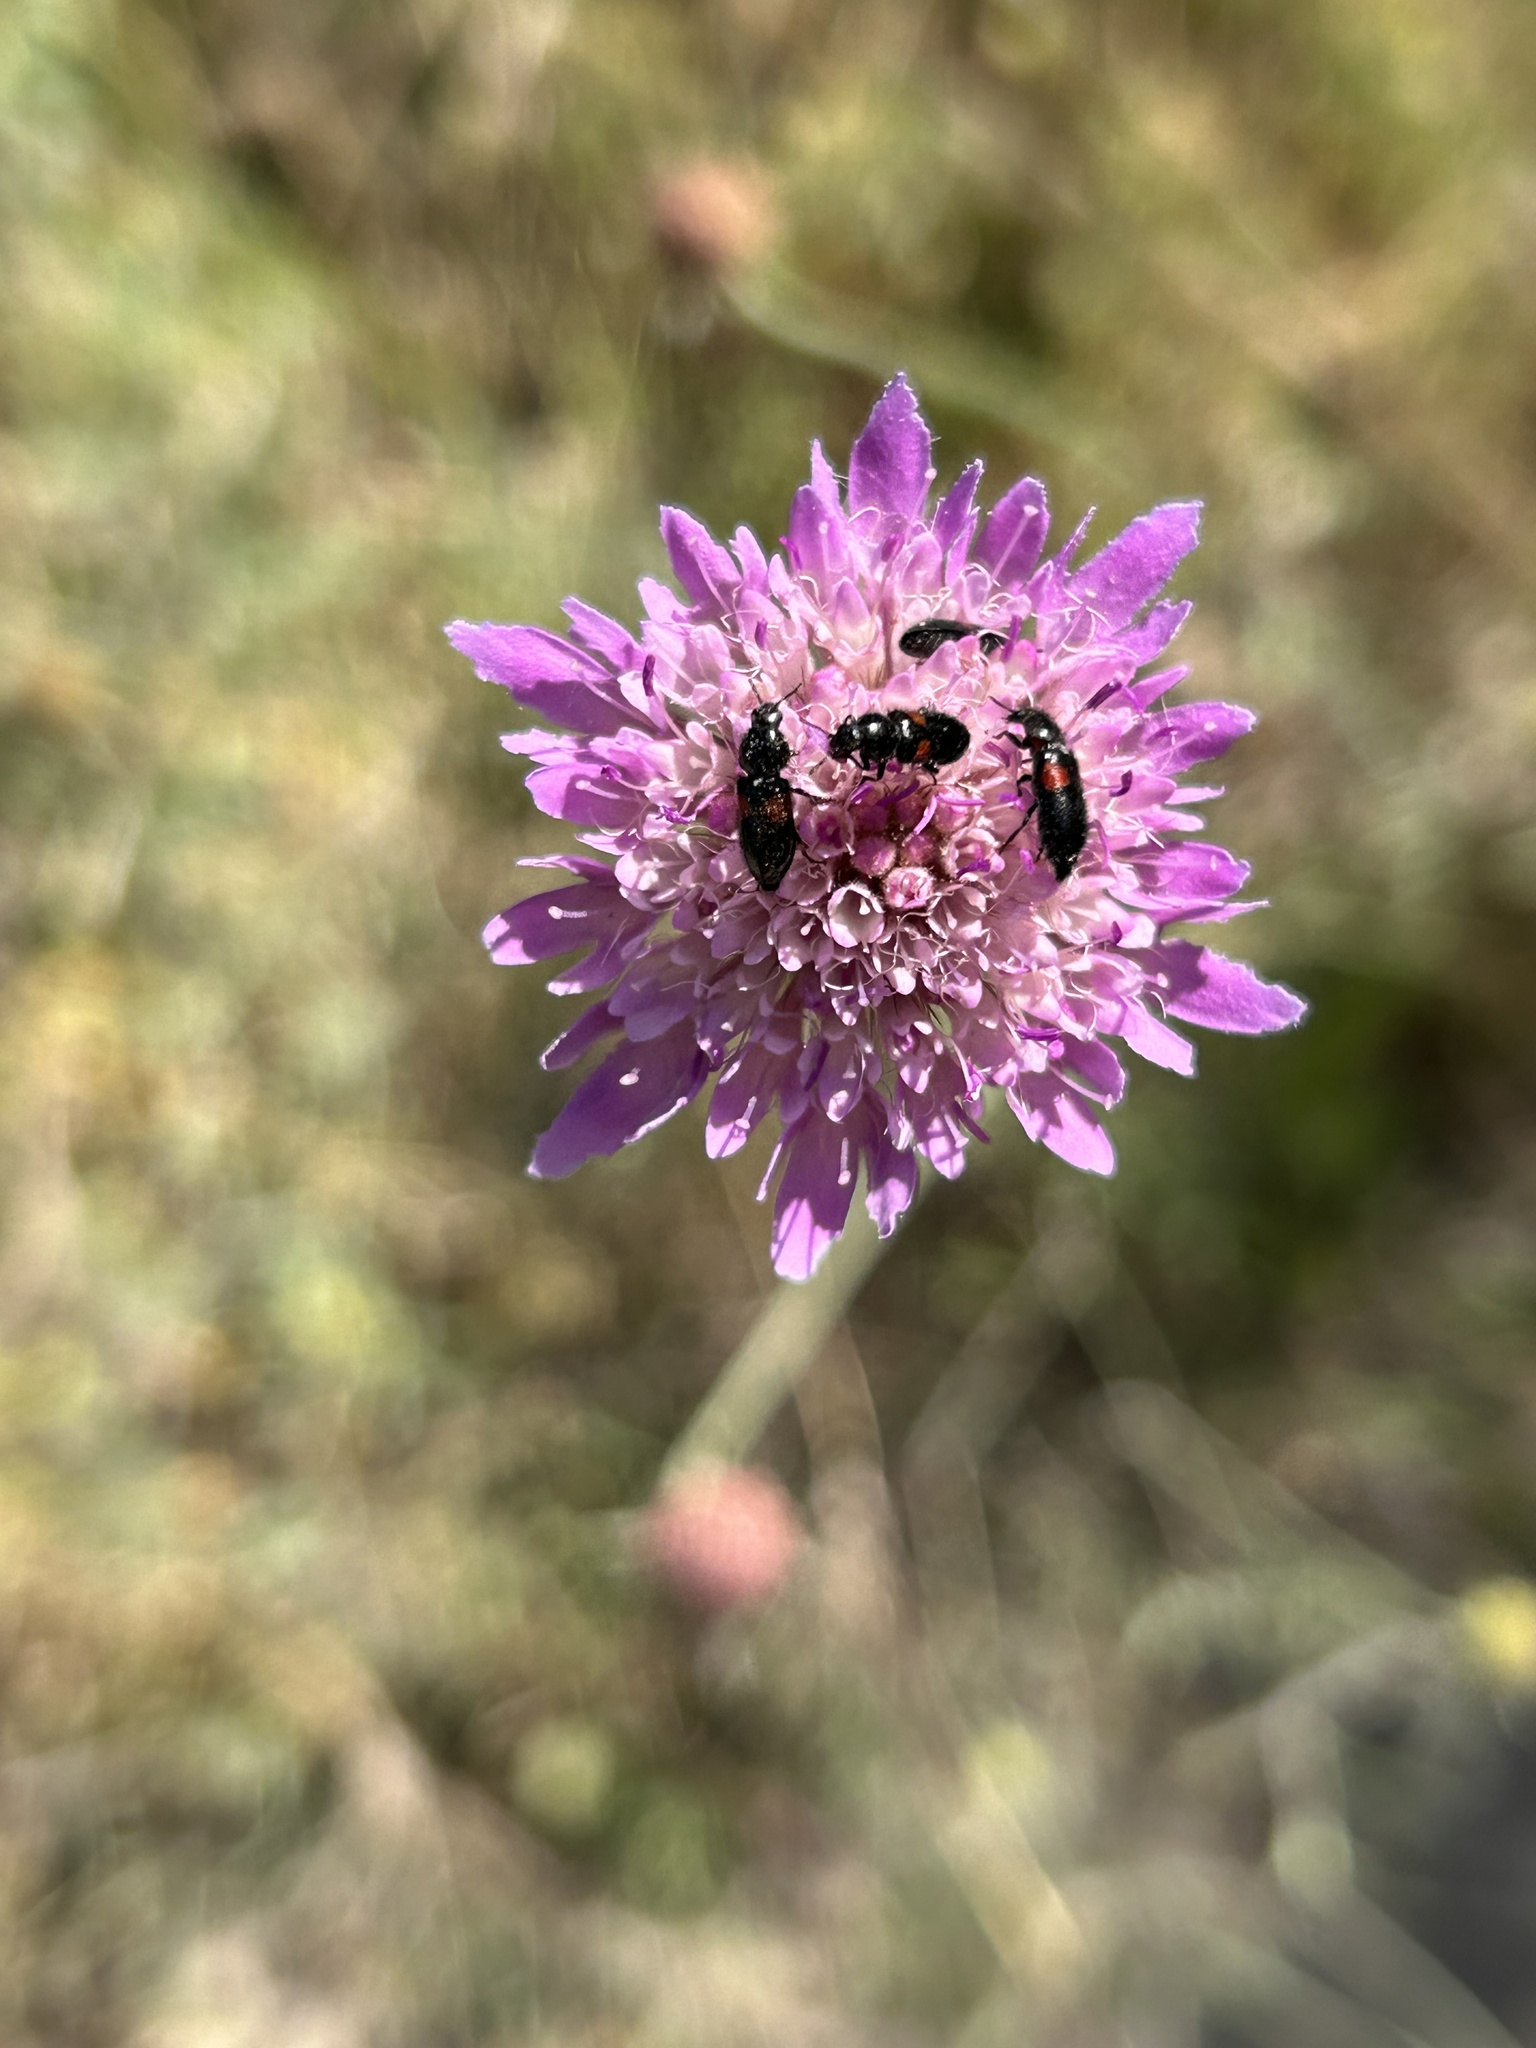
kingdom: Animalia
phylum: Arthropoda
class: Insecta
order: Coleoptera
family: Melyridae
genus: Divales
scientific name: Divales bipustulatus
